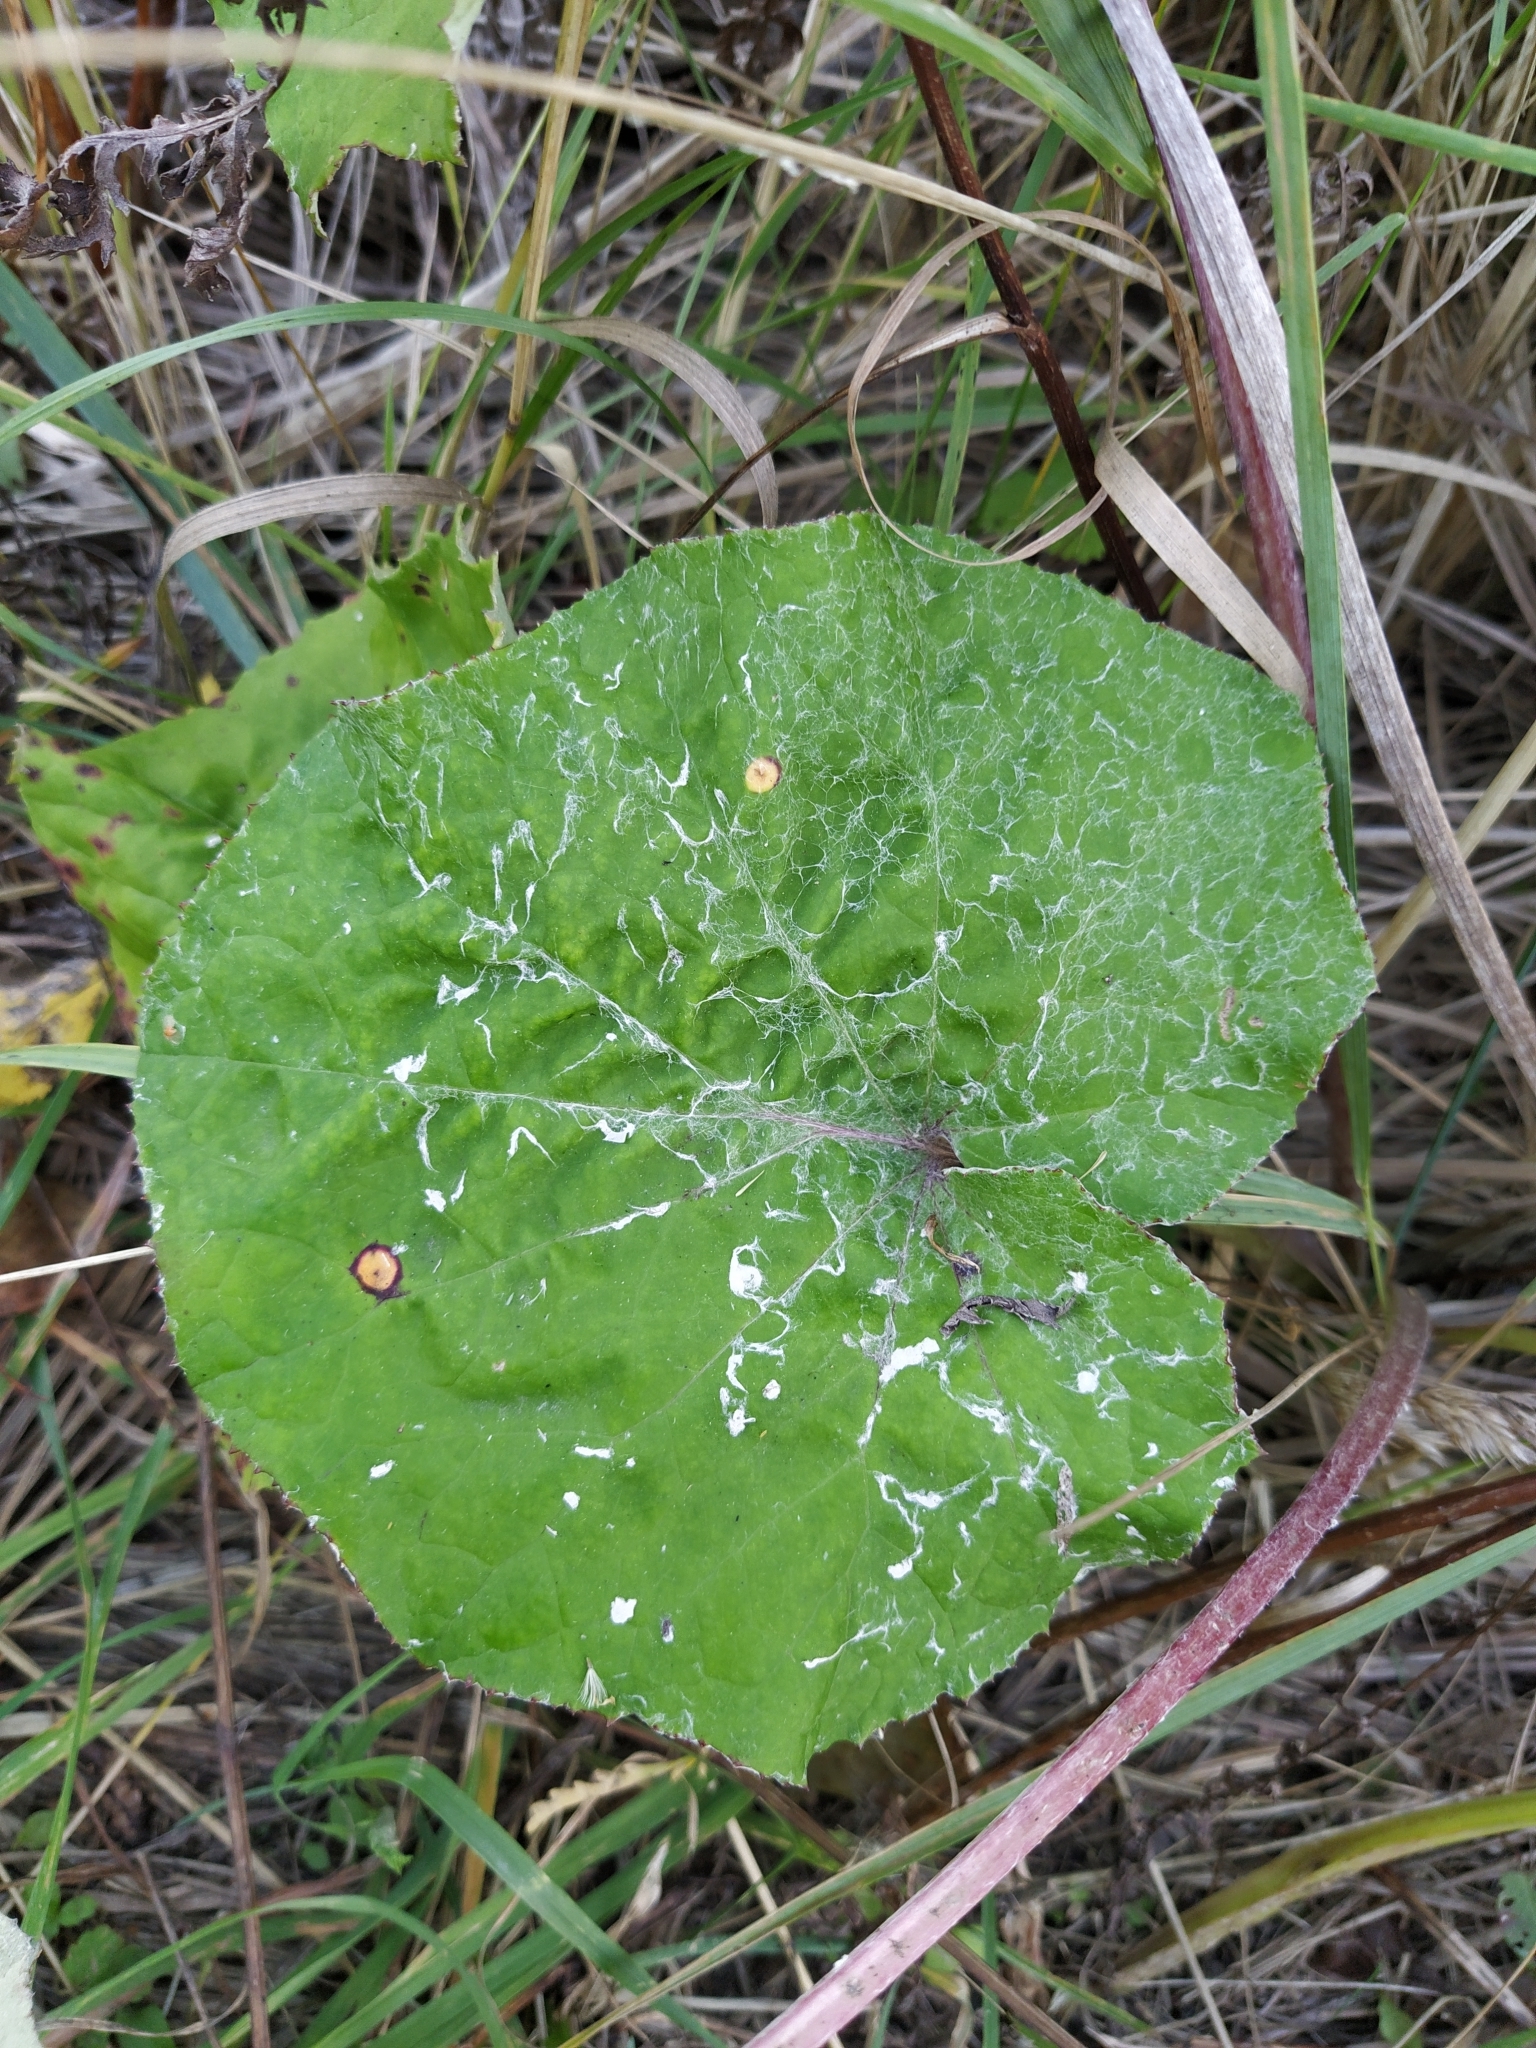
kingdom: Plantae
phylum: Tracheophyta
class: Magnoliopsida
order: Asterales
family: Asteraceae
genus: Tussilago
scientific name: Tussilago farfara
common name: Coltsfoot
